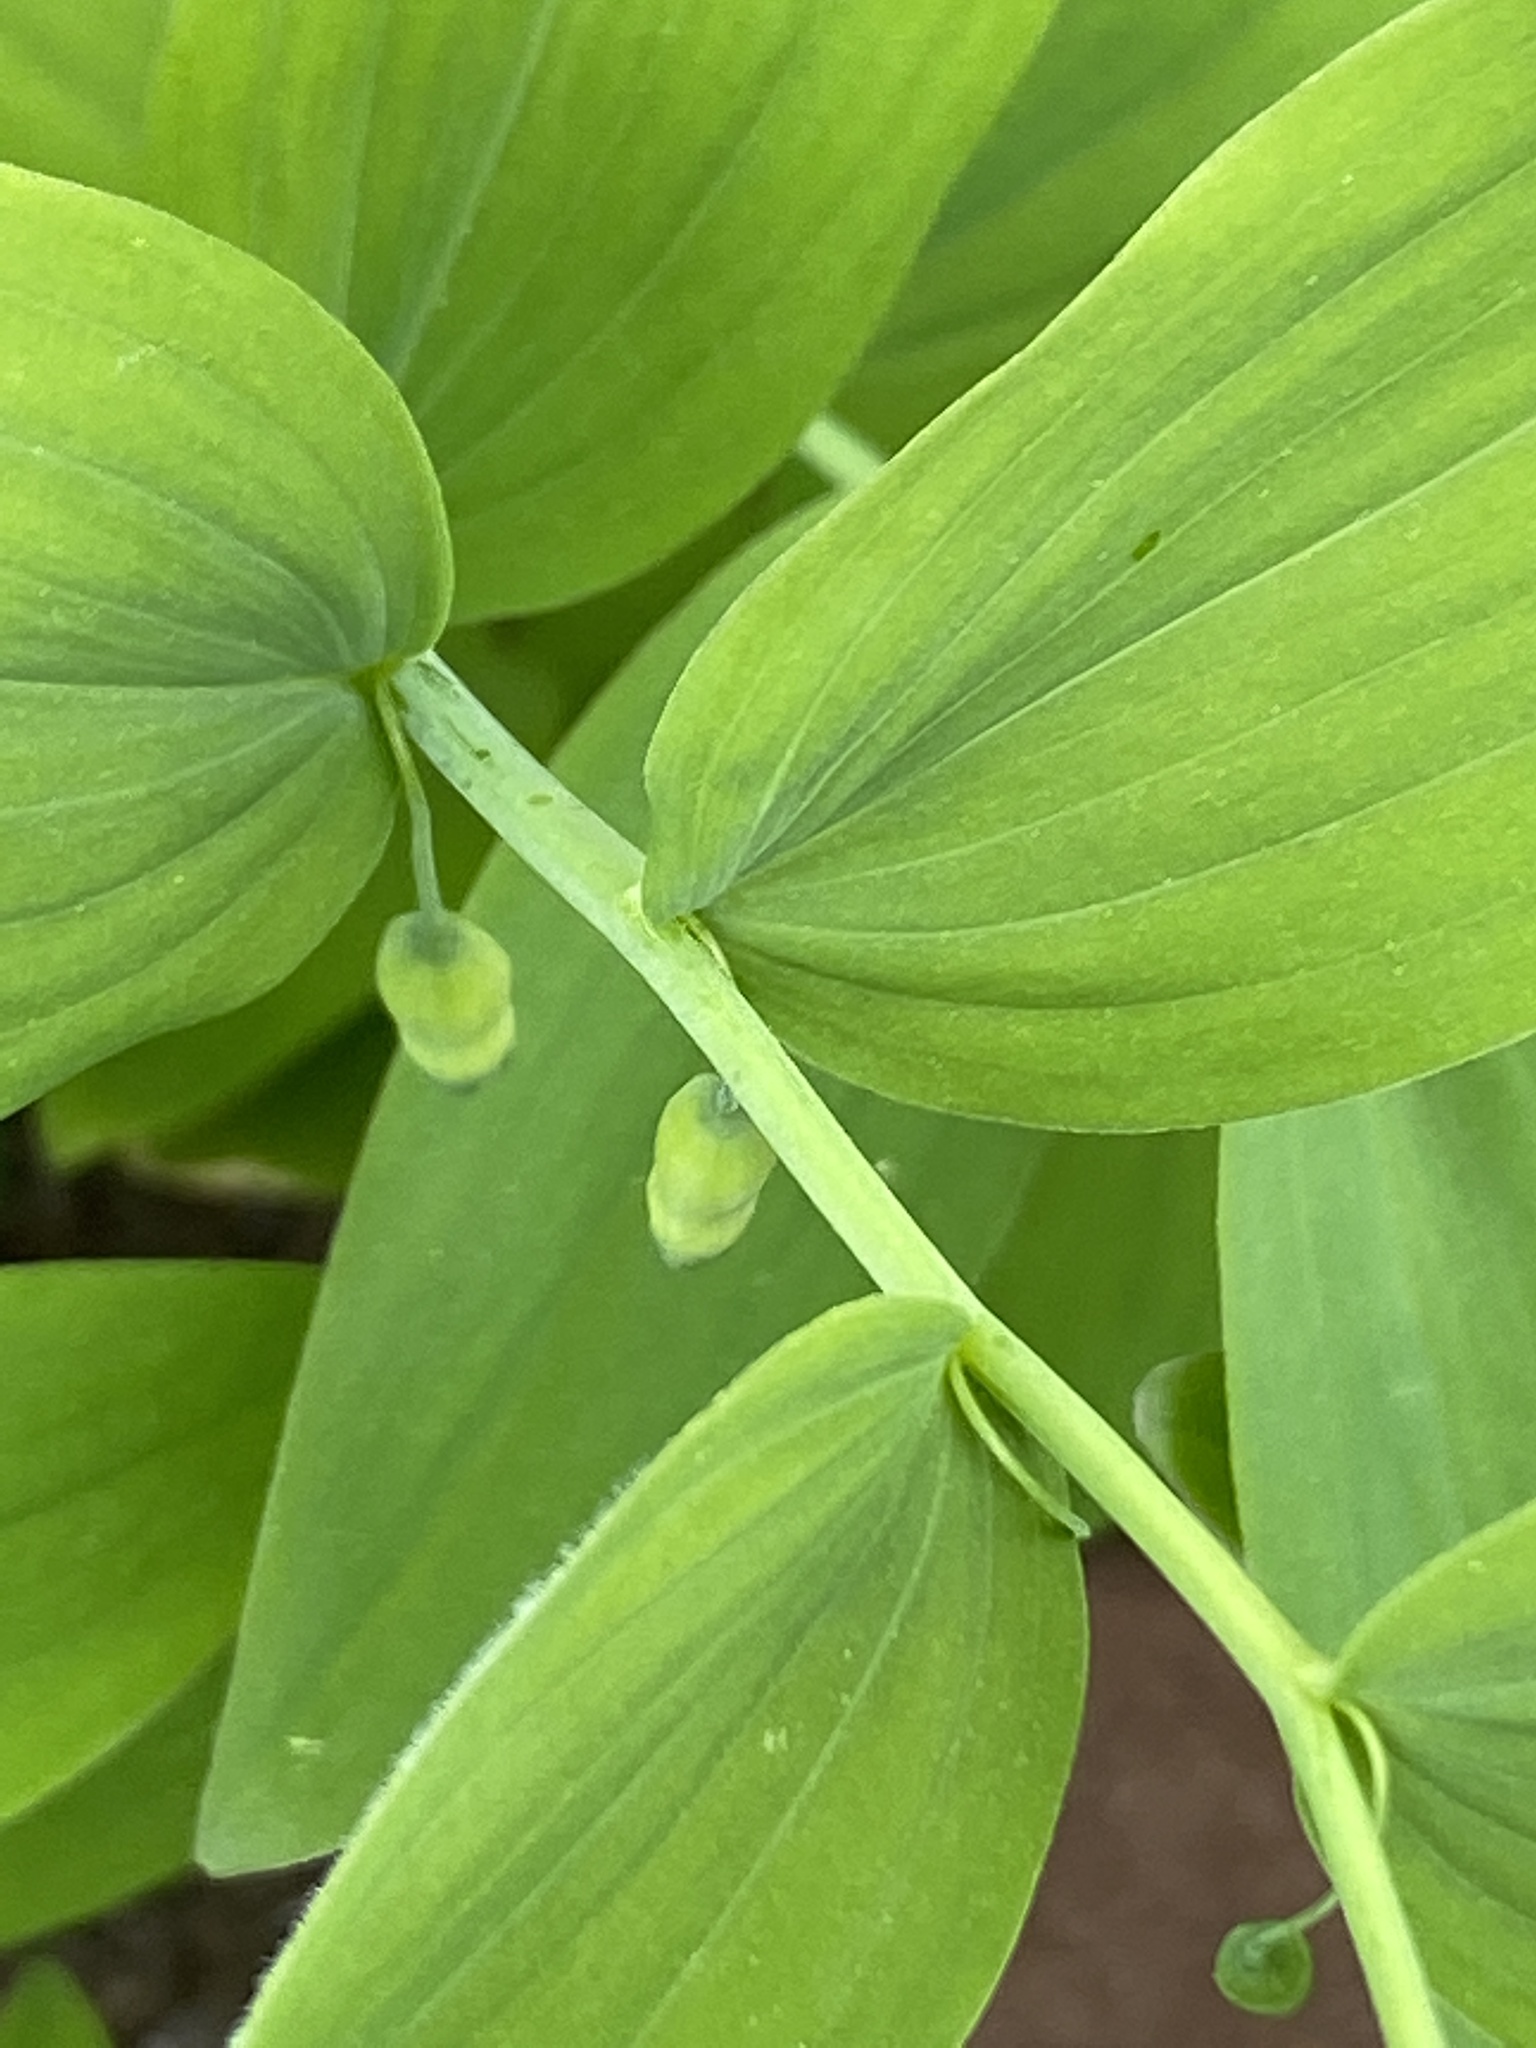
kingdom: Plantae
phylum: Tracheophyta
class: Liliopsida
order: Asparagales
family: Asparagaceae
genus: Polygonatum
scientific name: Polygonatum pubescens
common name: Downy solomon's seal
